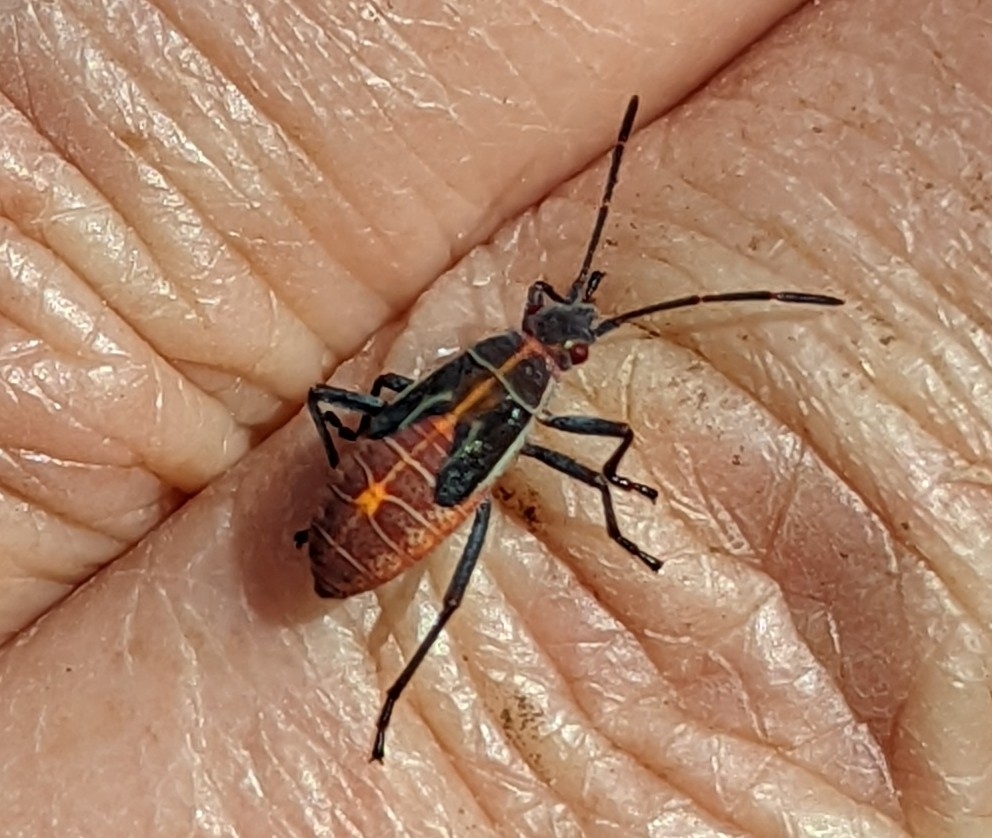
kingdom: Animalia
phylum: Arthropoda
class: Insecta
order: Hemiptera
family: Rhopalidae
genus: Boisea
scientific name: Boisea rubrolineata
